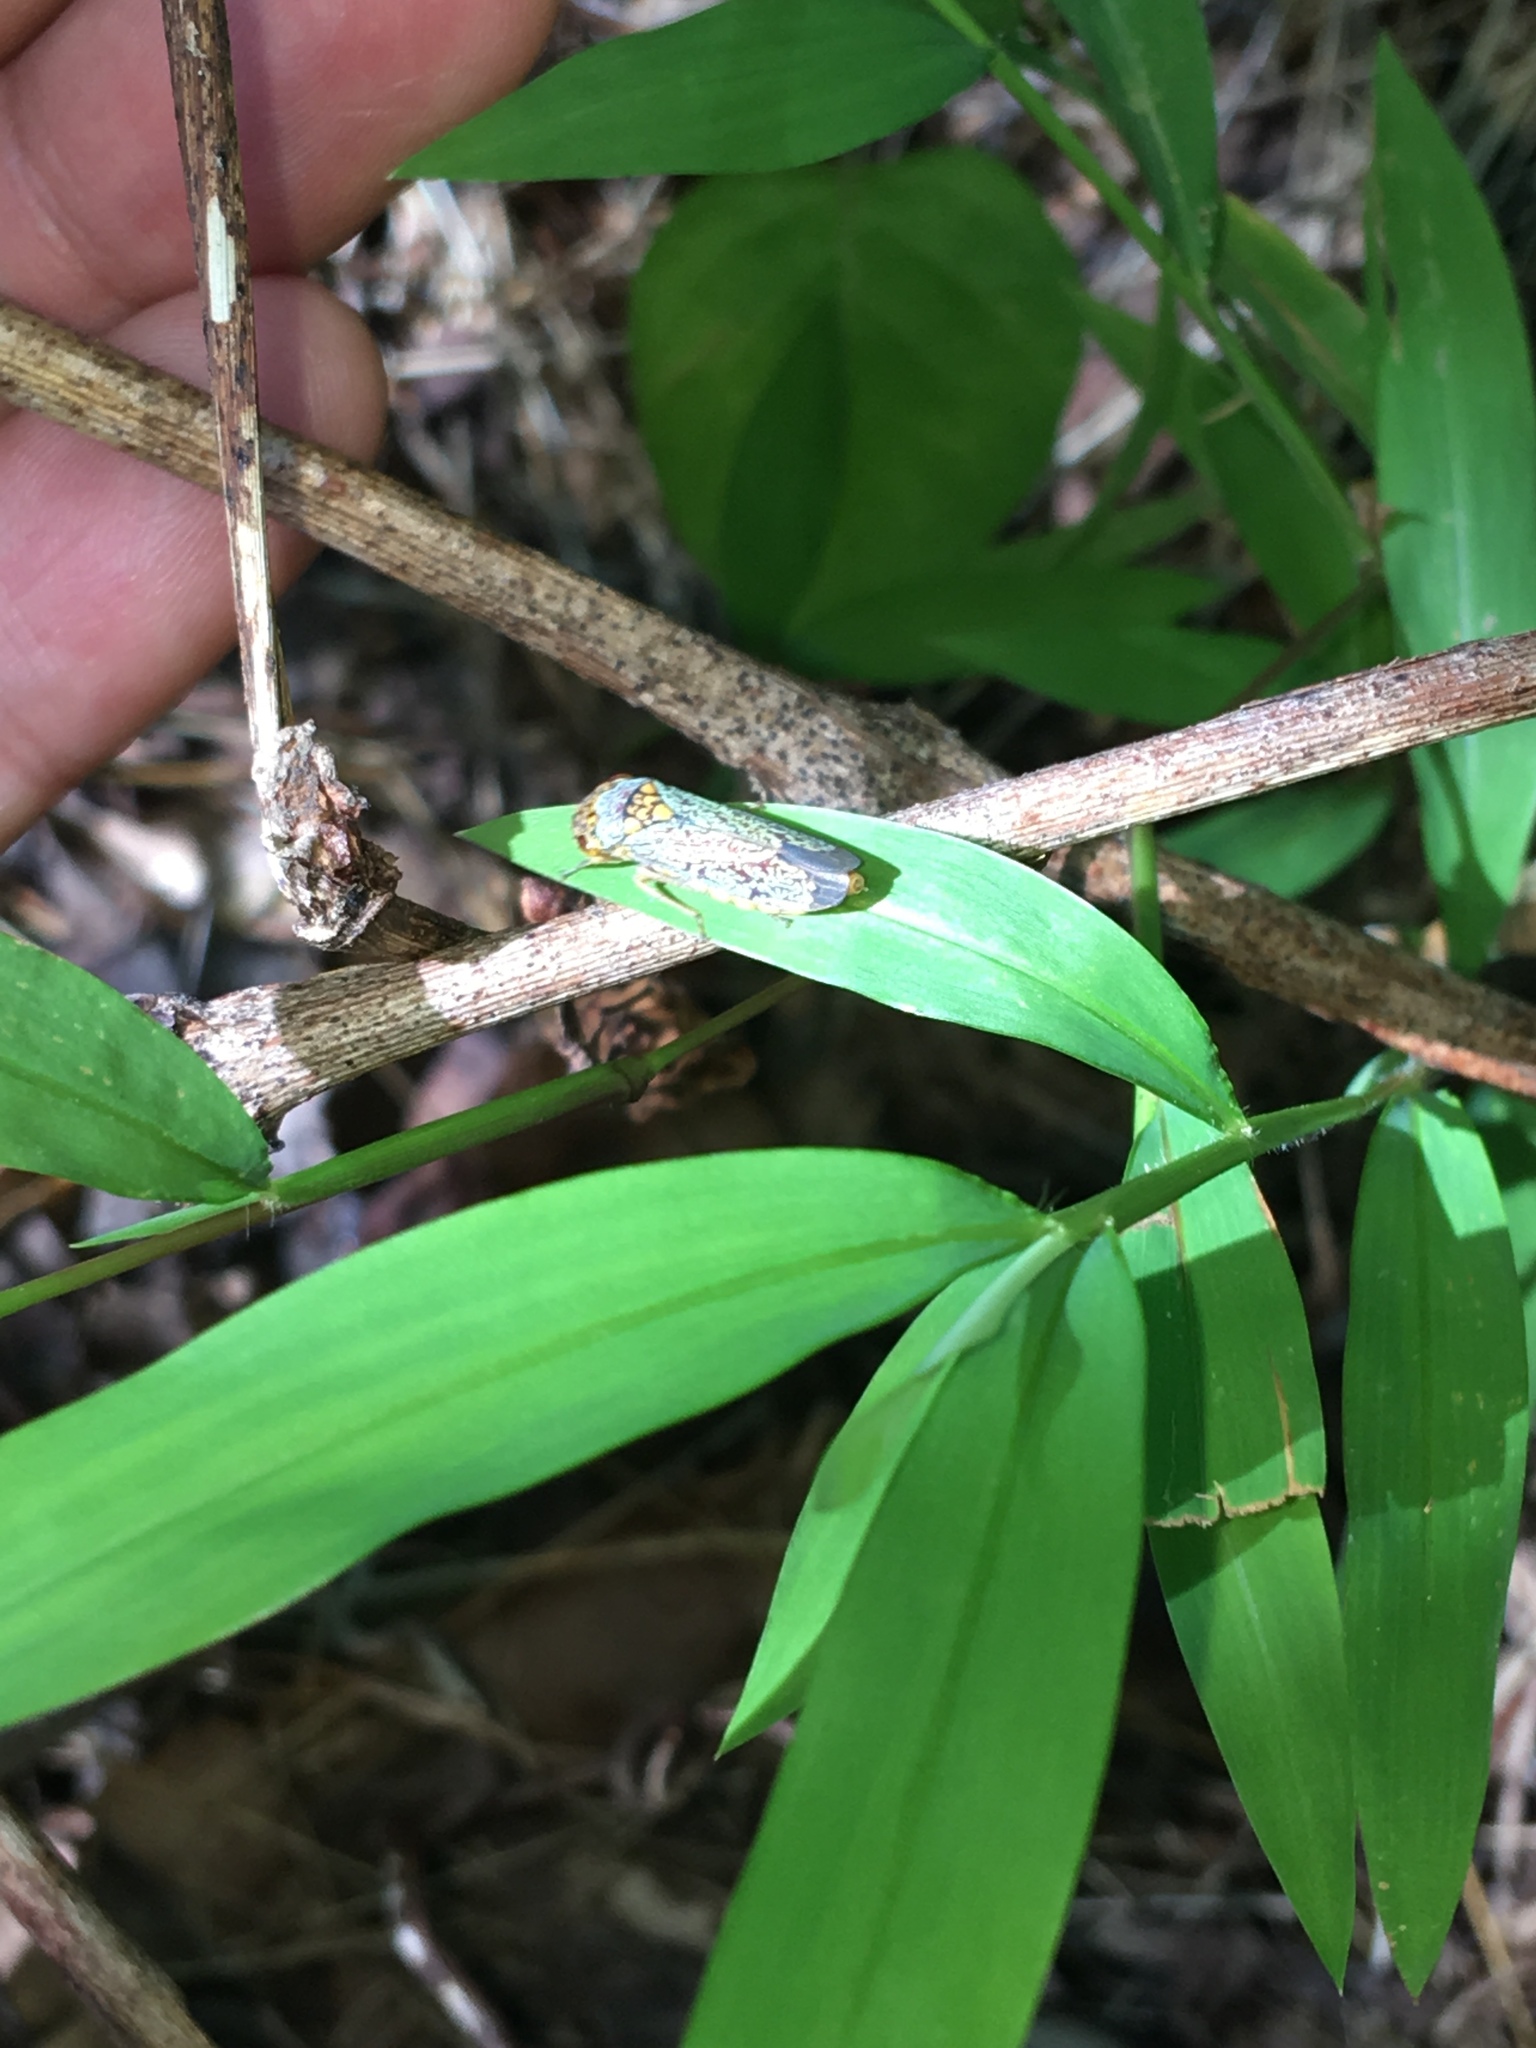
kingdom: Animalia
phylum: Arthropoda
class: Insecta
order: Hemiptera
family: Cicadellidae
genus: Oncometopia
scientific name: Oncometopia orbona
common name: Broad-headed sharpshooter
